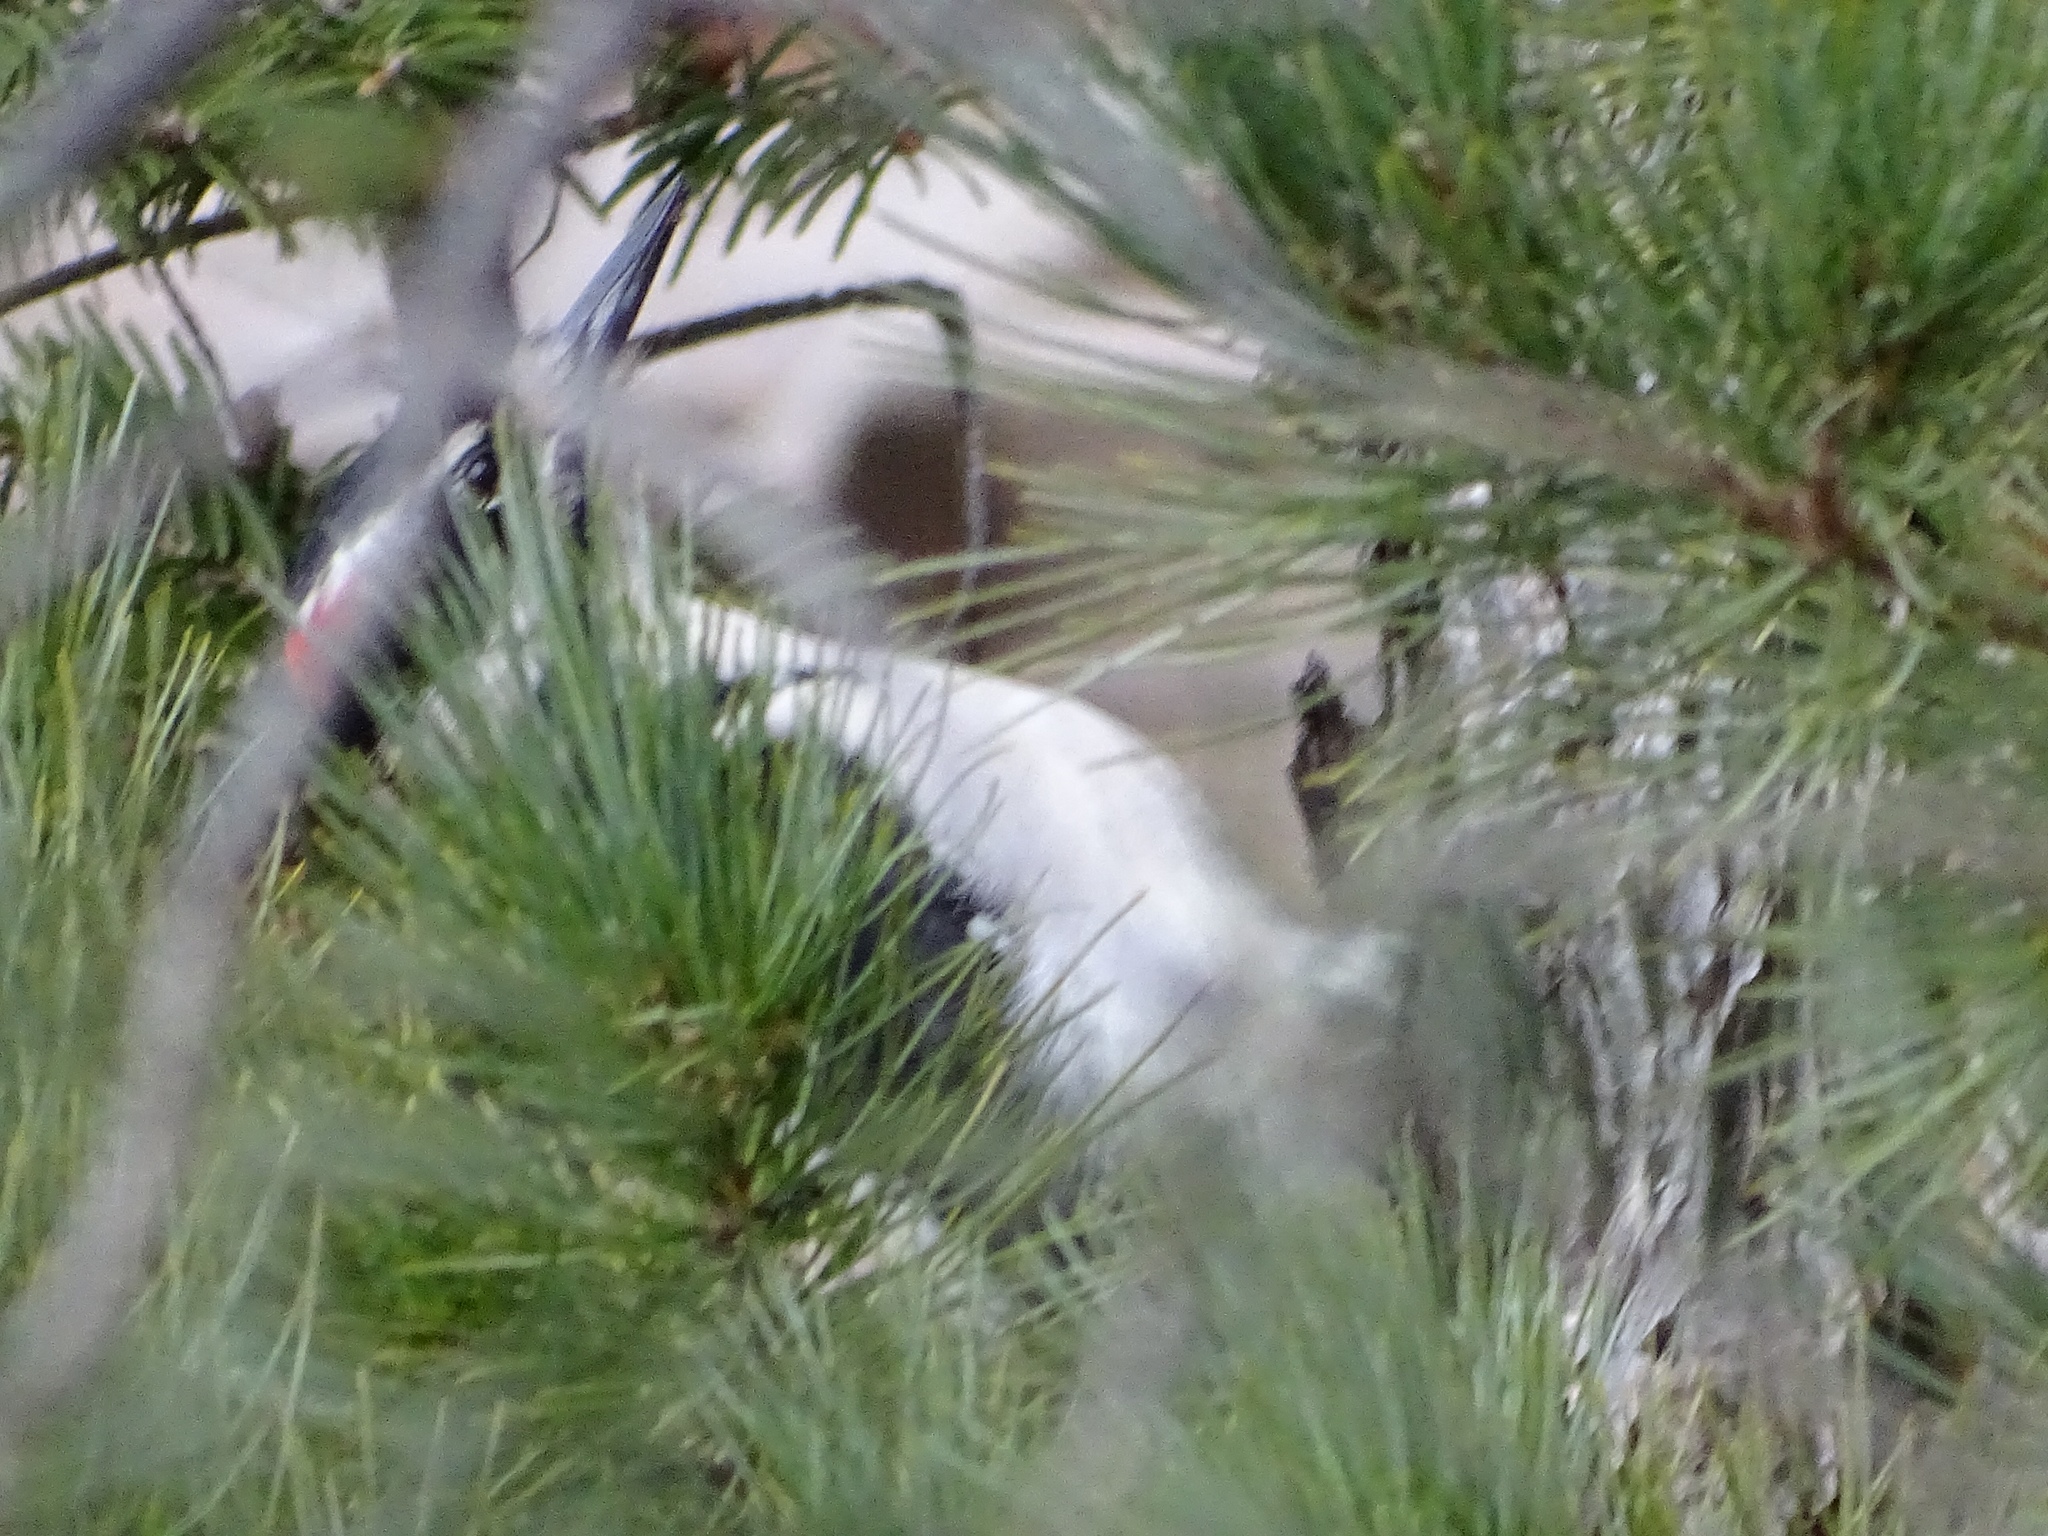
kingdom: Animalia
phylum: Chordata
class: Aves
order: Piciformes
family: Picidae
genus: Leuconotopicus
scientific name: Leuconotopicus villosus
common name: Hairy woodpecker
